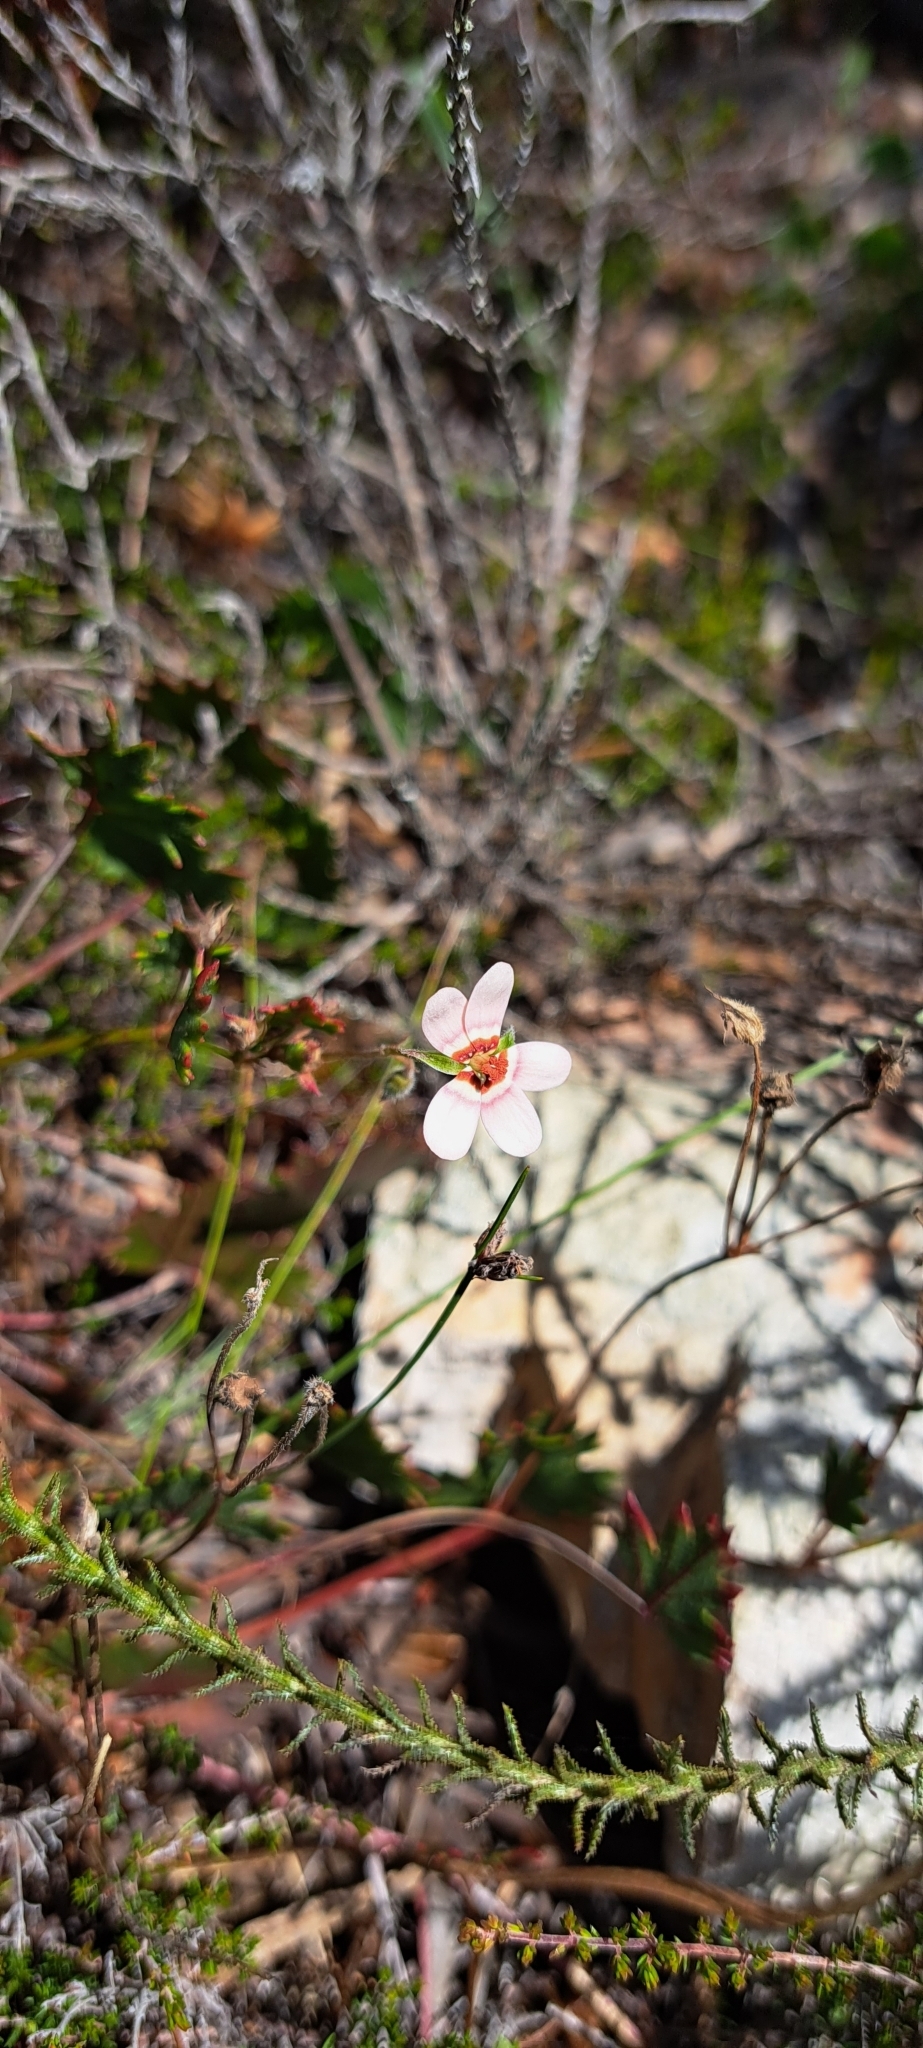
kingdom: Plantae
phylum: Tracheophyta
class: Magnoliopsida
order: Geraniales
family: Geraniaceae
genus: Pelargonium
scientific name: Pelargonium incarnatum
